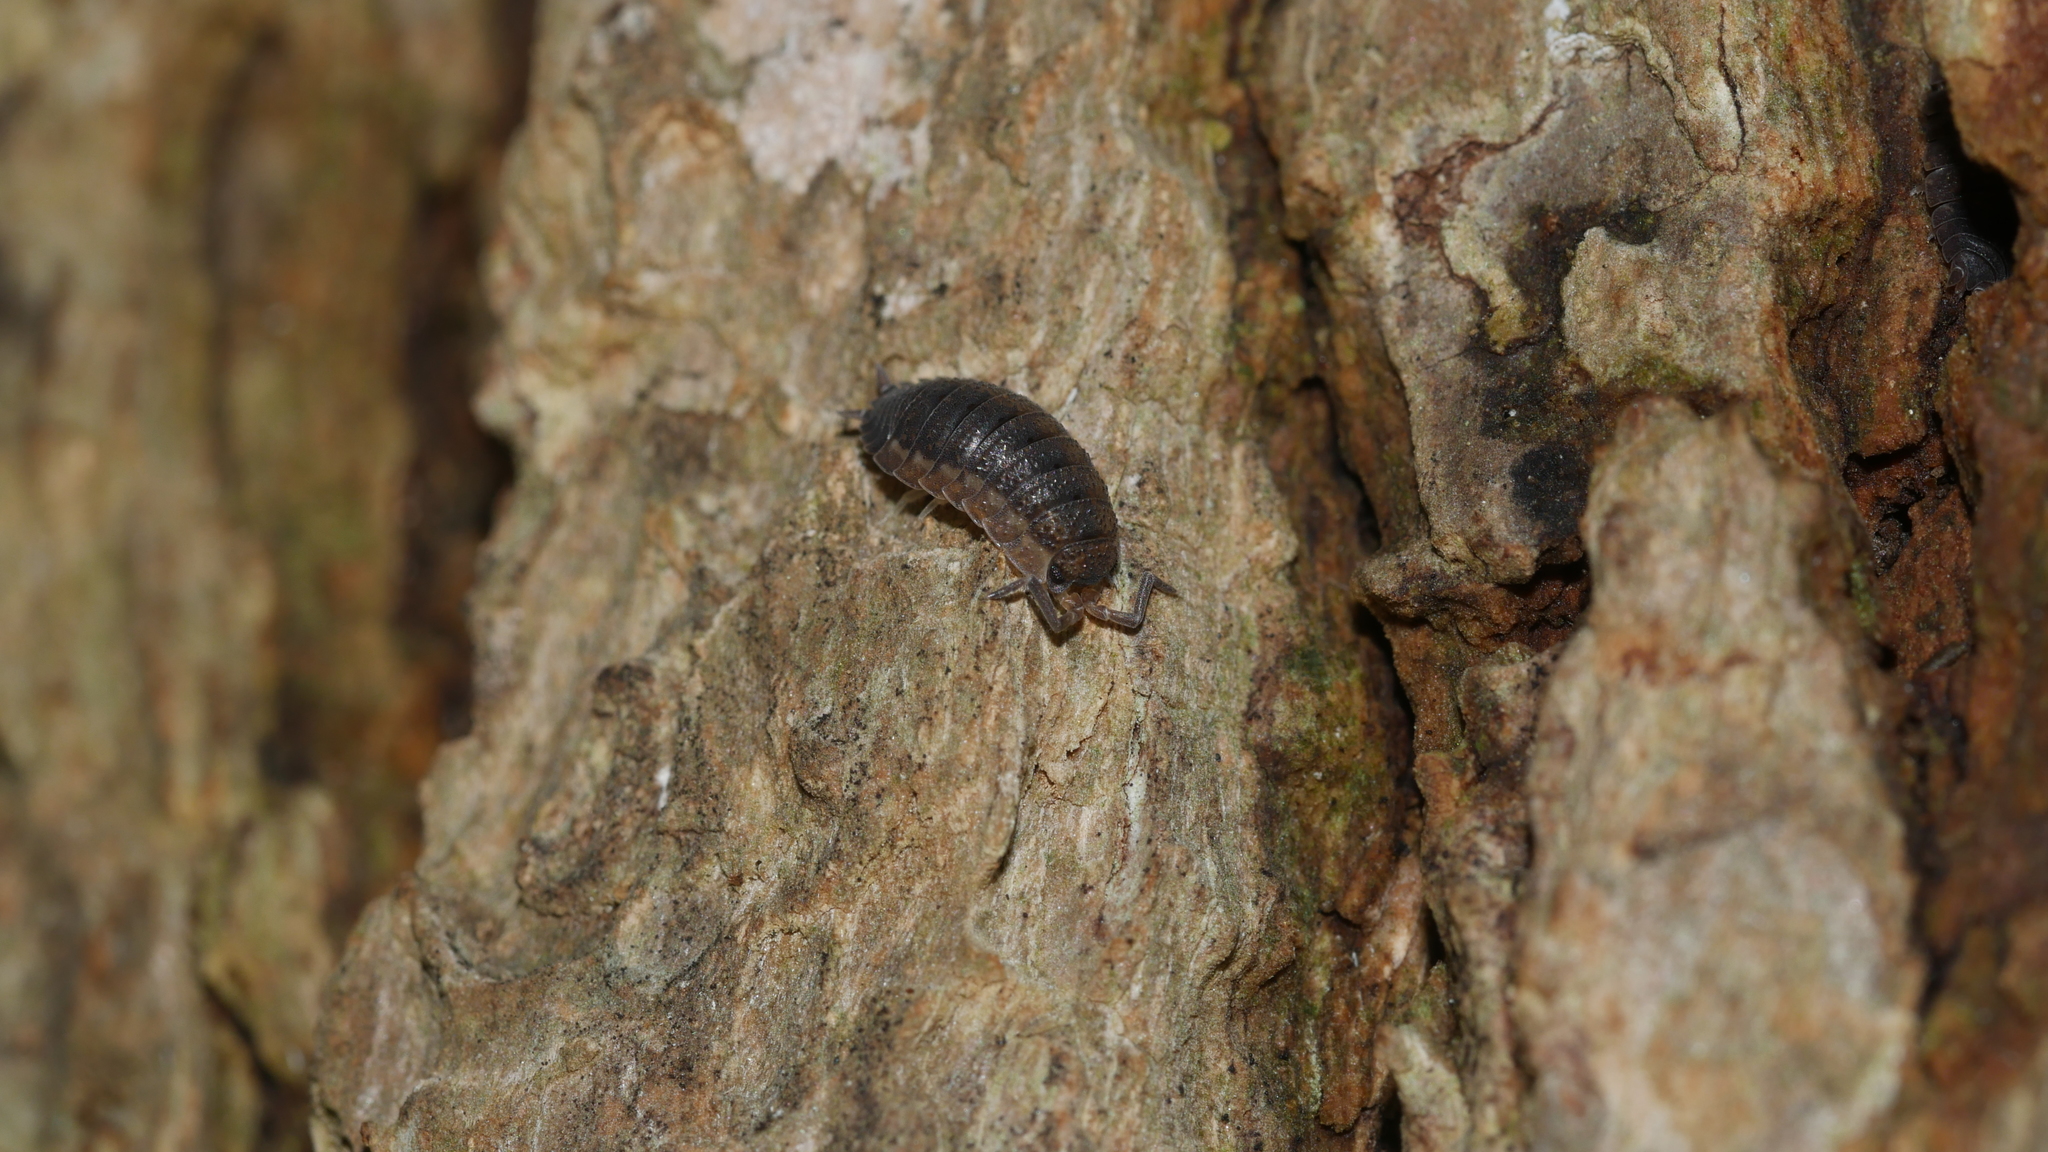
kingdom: Animalia
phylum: Arthropoda
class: Malacostraca
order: Isopoda
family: Porcellionidae
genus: Porcellio
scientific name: Porcellio scaber
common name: Common rough woodlouse
